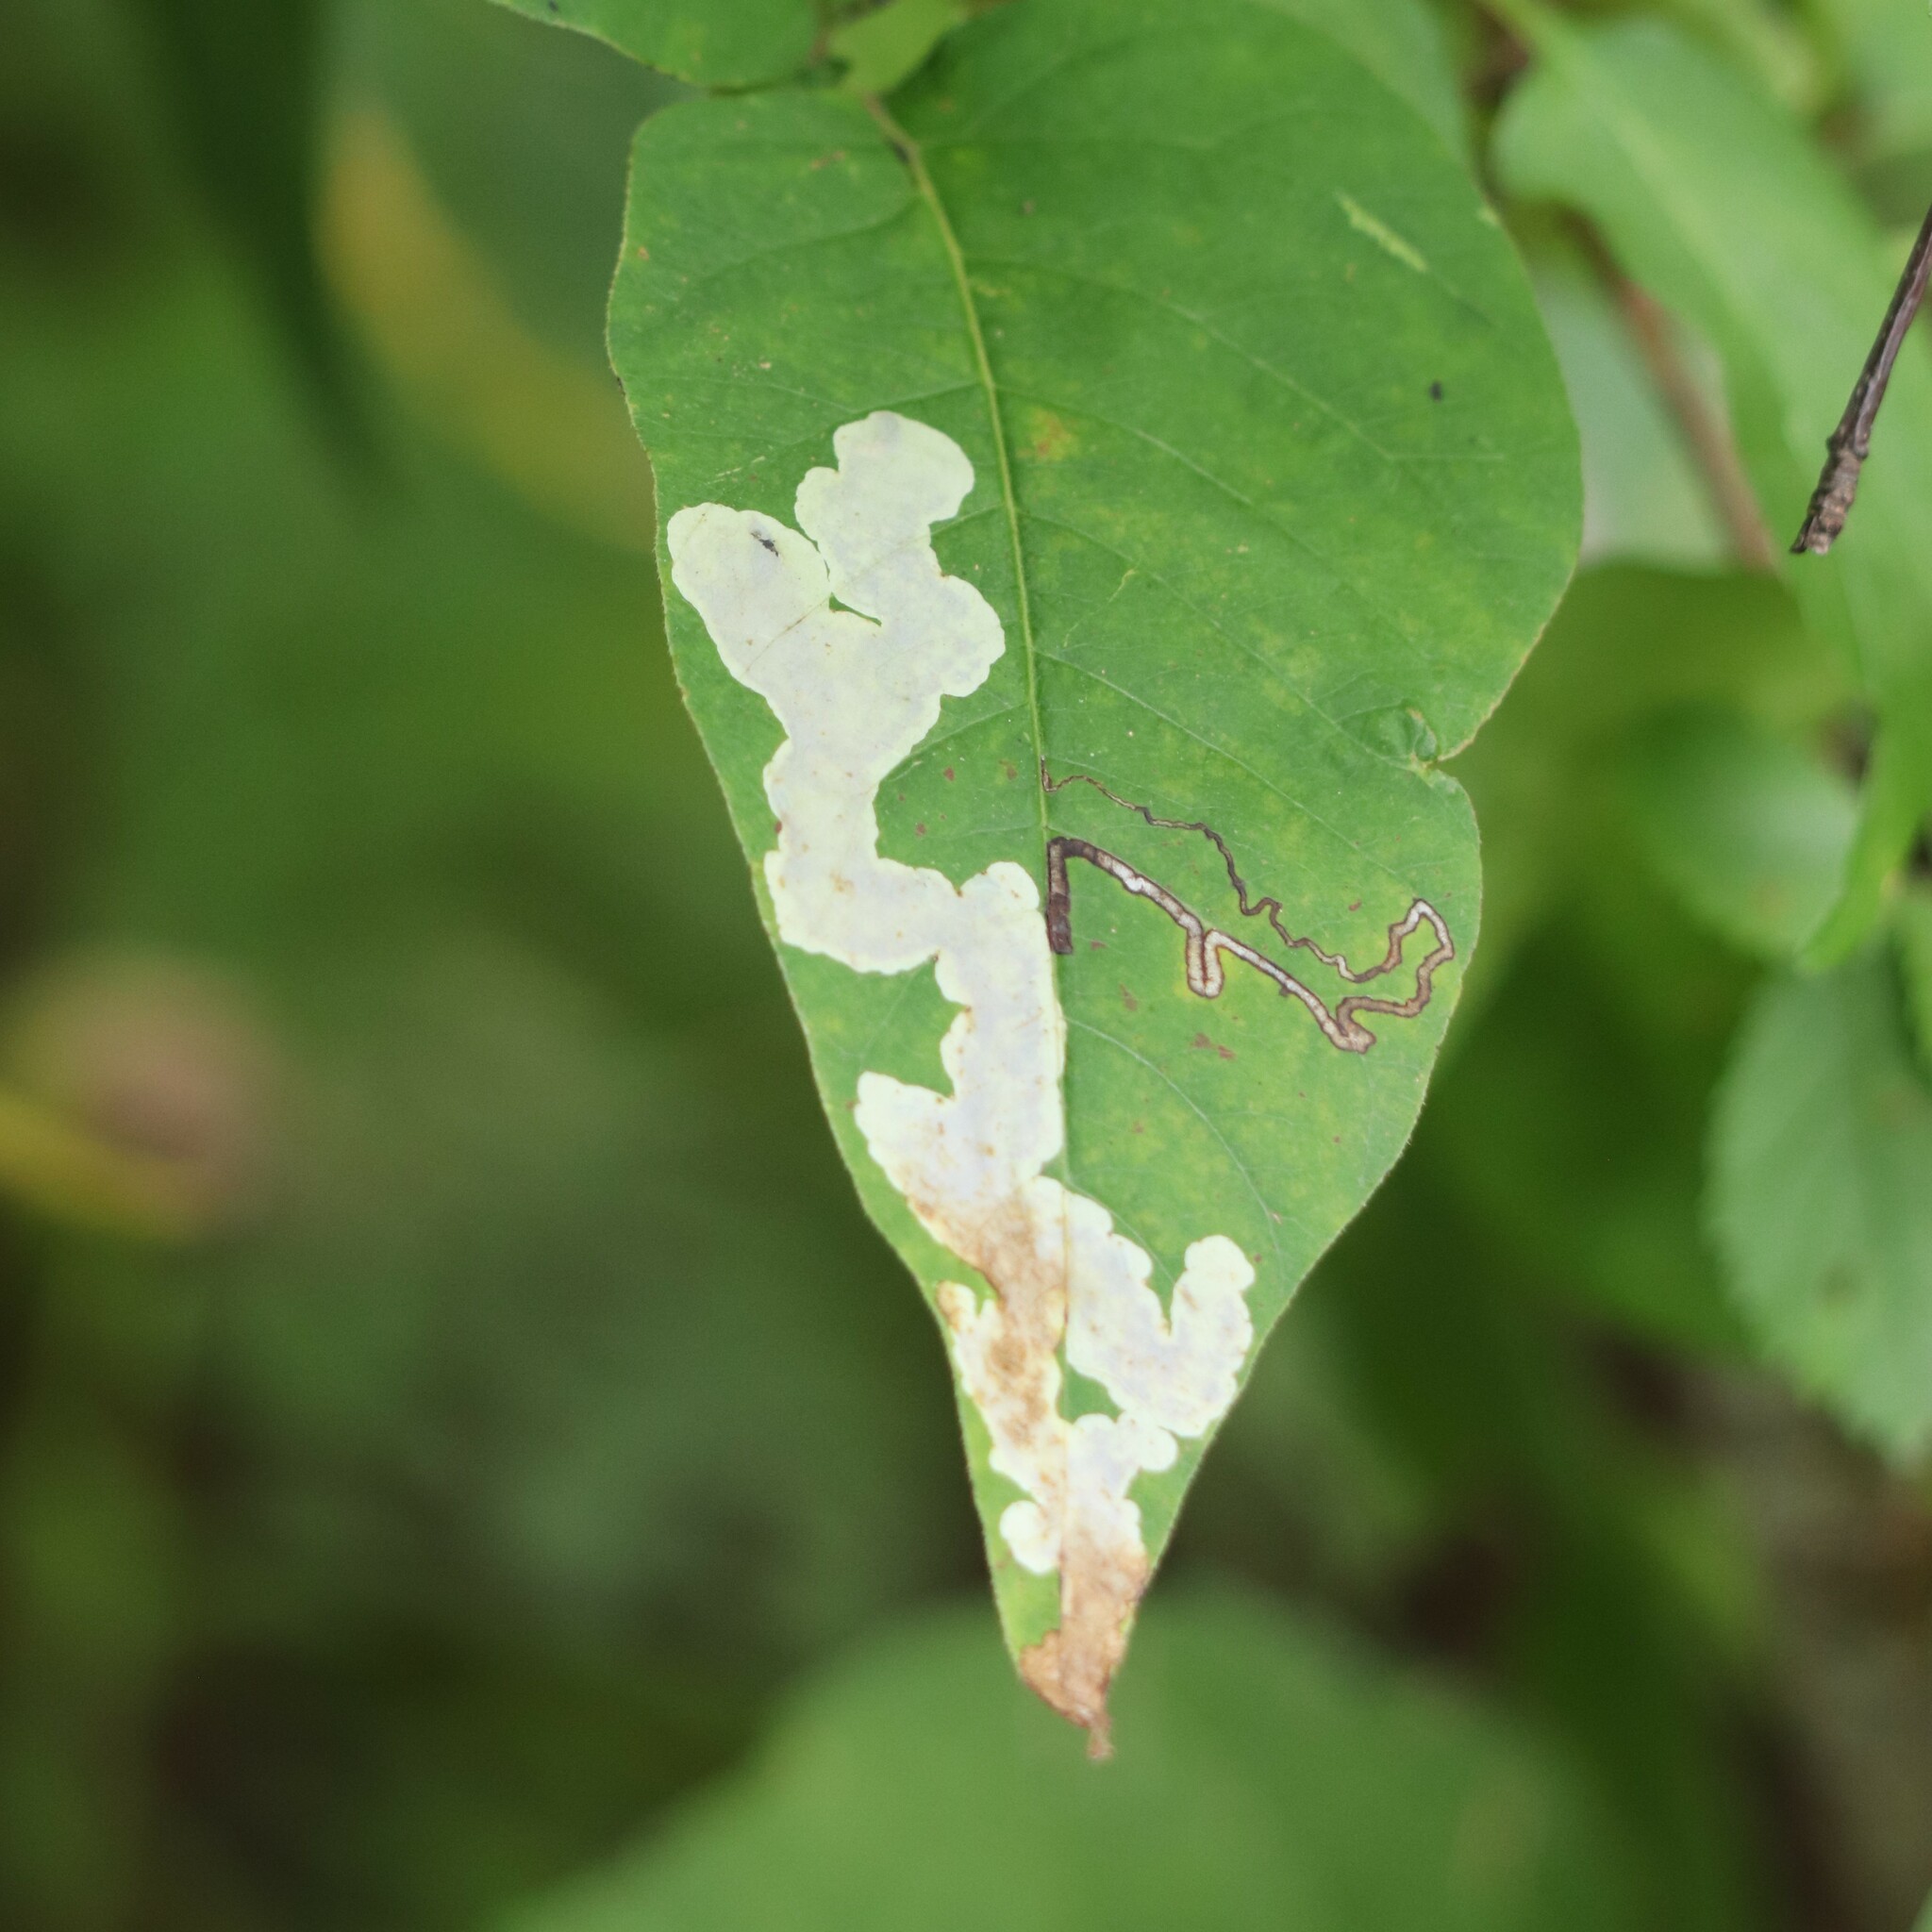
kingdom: Animalia
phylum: Arthropoda
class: Insecta
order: Lepidoptera
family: Nepticulidae
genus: Stigmella
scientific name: Stigmella rhoifoliella
